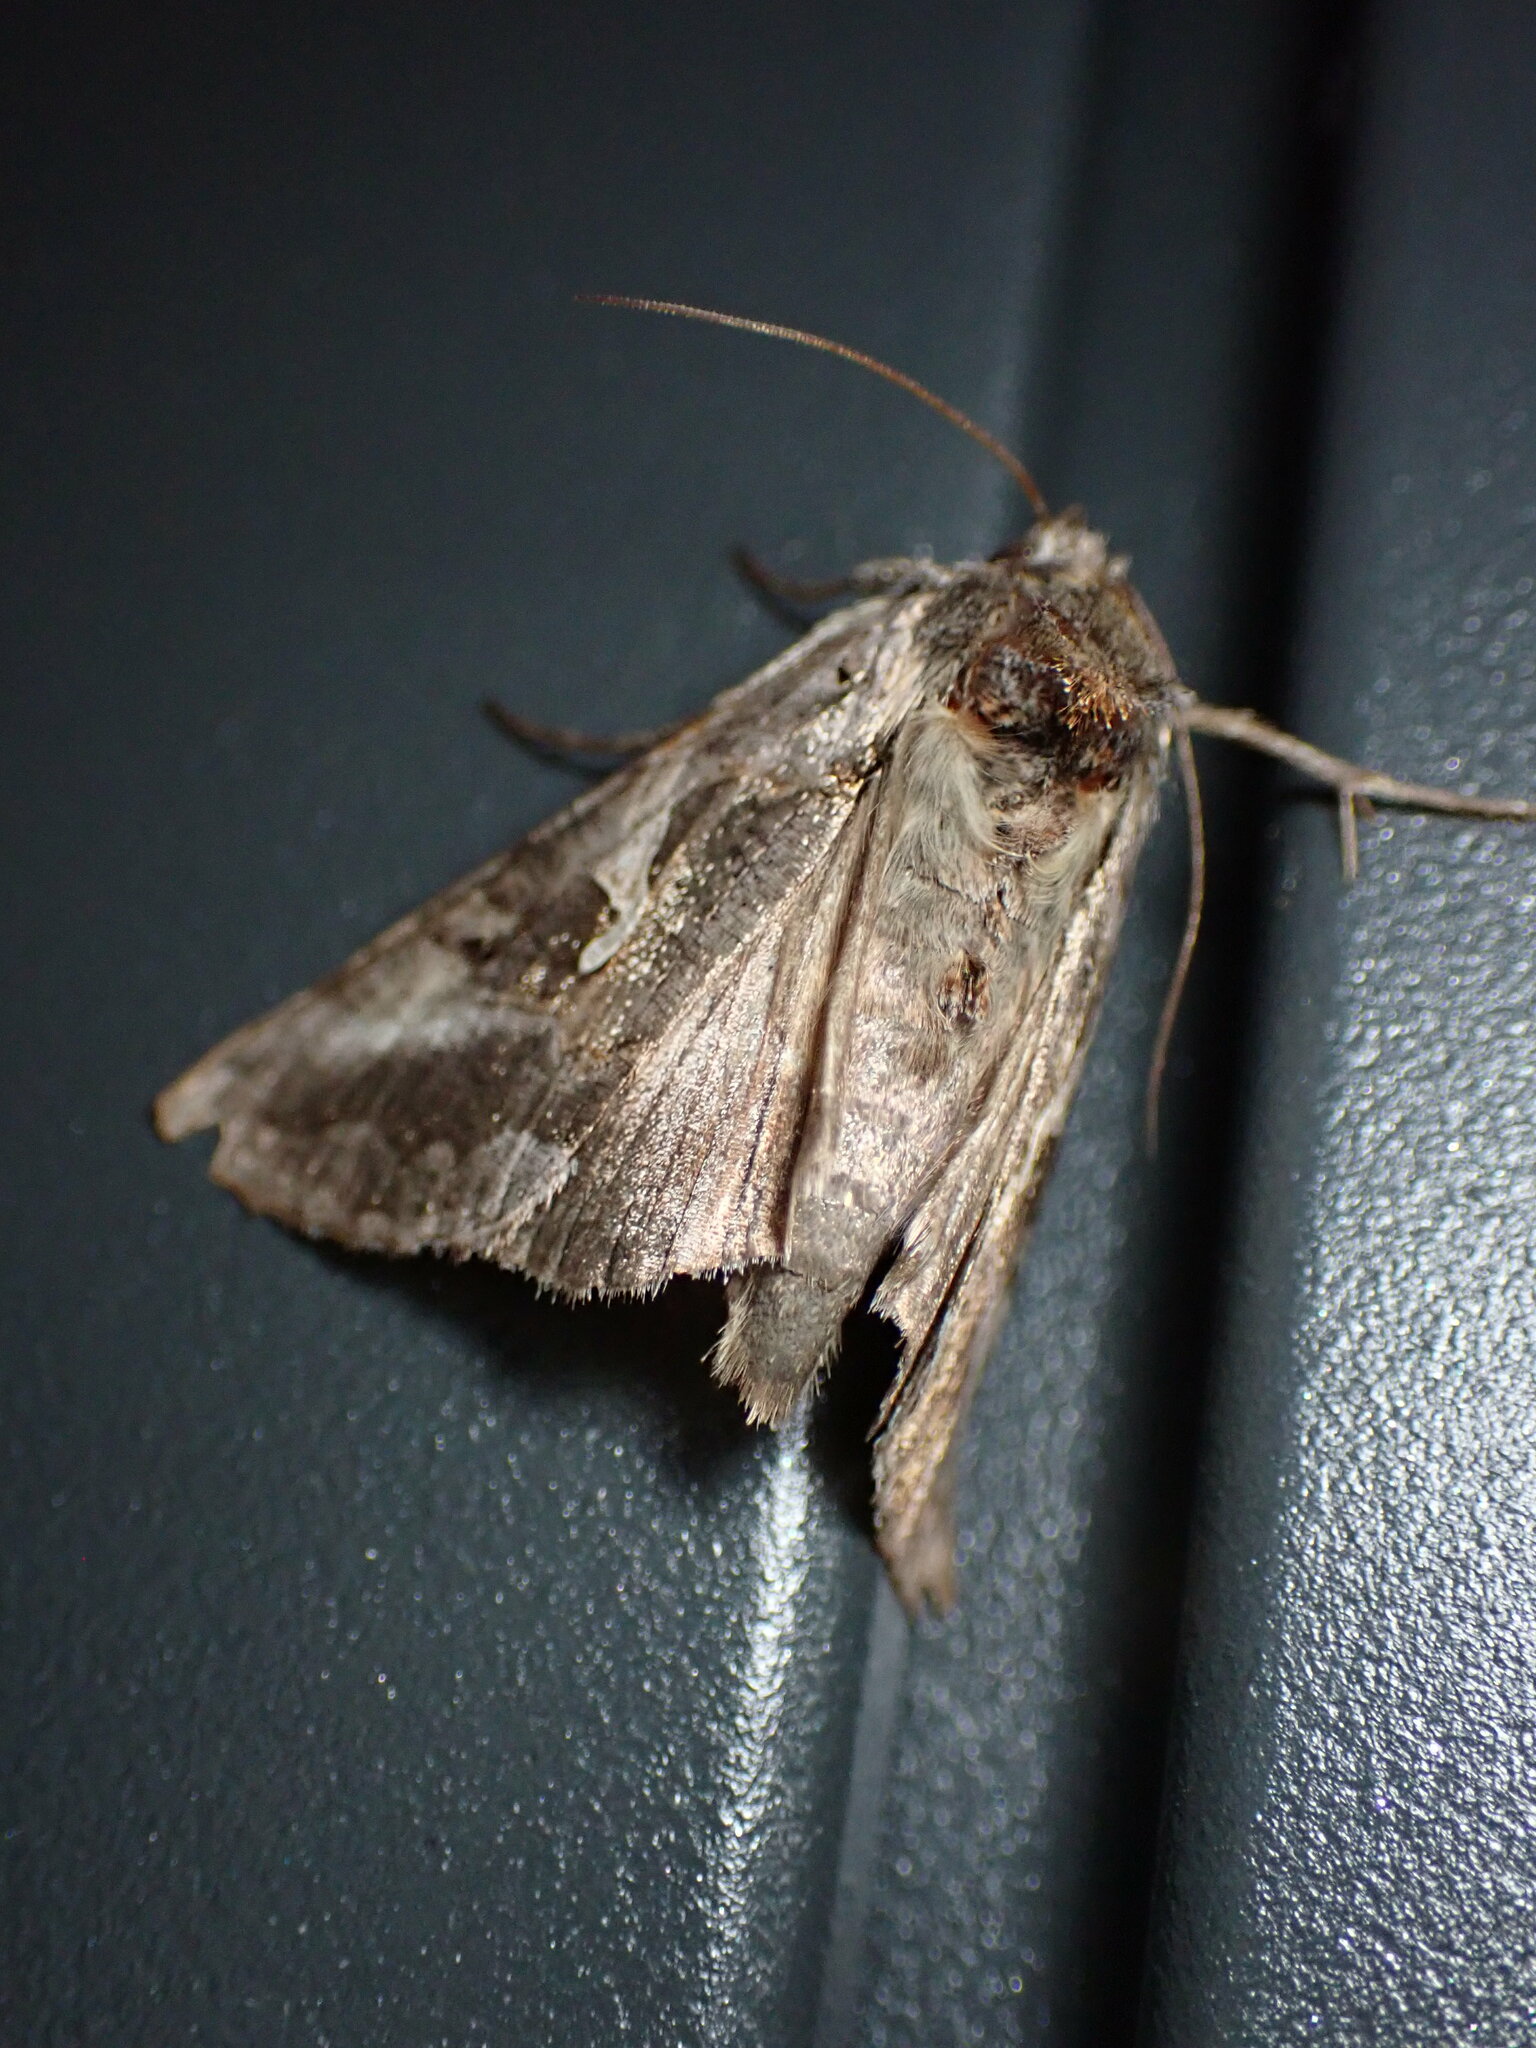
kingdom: Animalia
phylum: Arthropoda
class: Insecta
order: Lepidoptera
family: Noctuidae
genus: Autographa
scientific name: Autographa gamma
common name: Silver y
